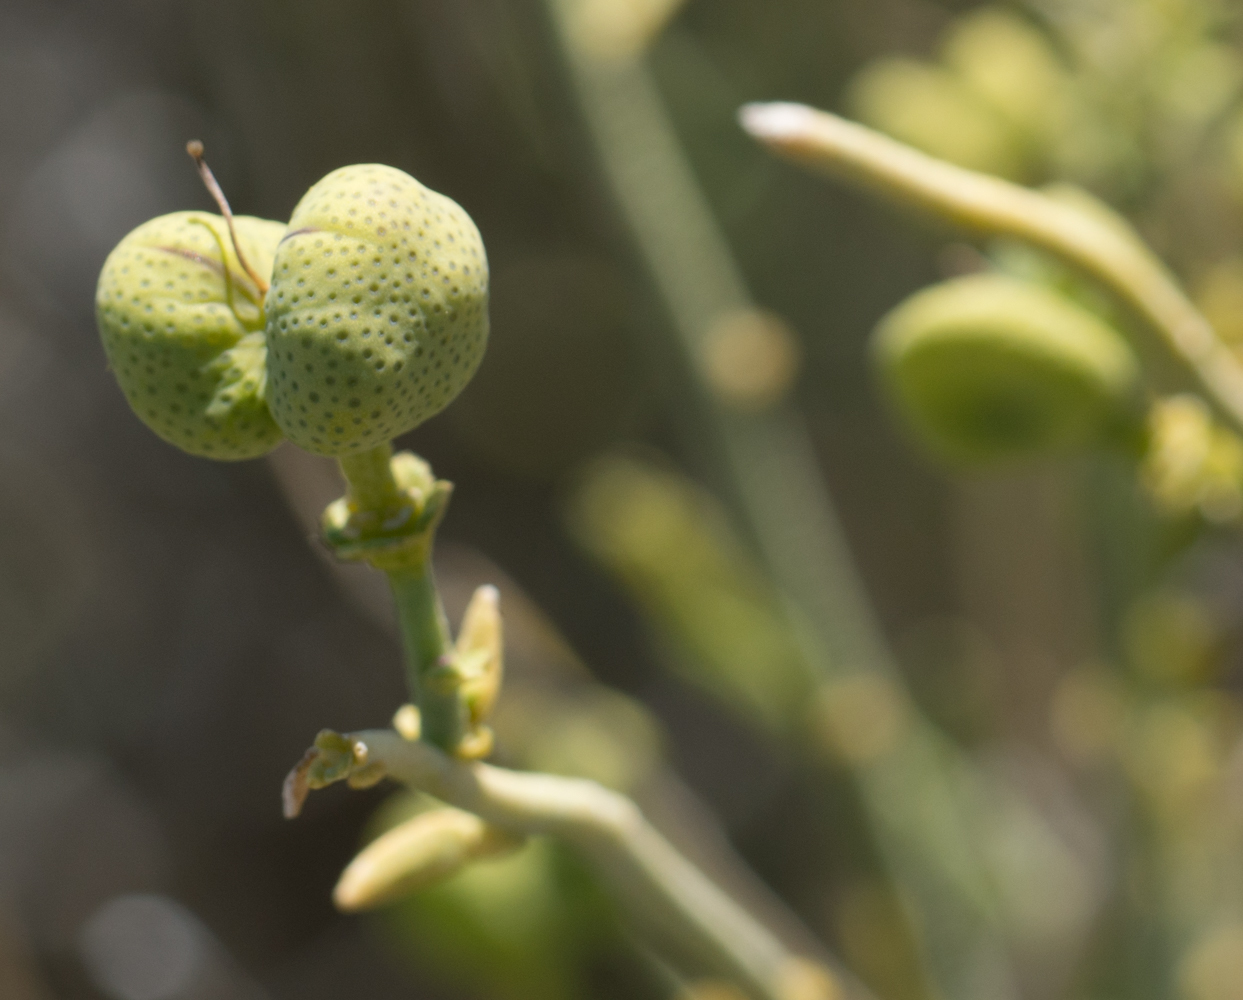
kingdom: Plantae
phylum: Tracheophyta
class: Magnoliopsida
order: Sapindales
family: Rutaceae
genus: Thamnosma
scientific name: Thamnosma montana
